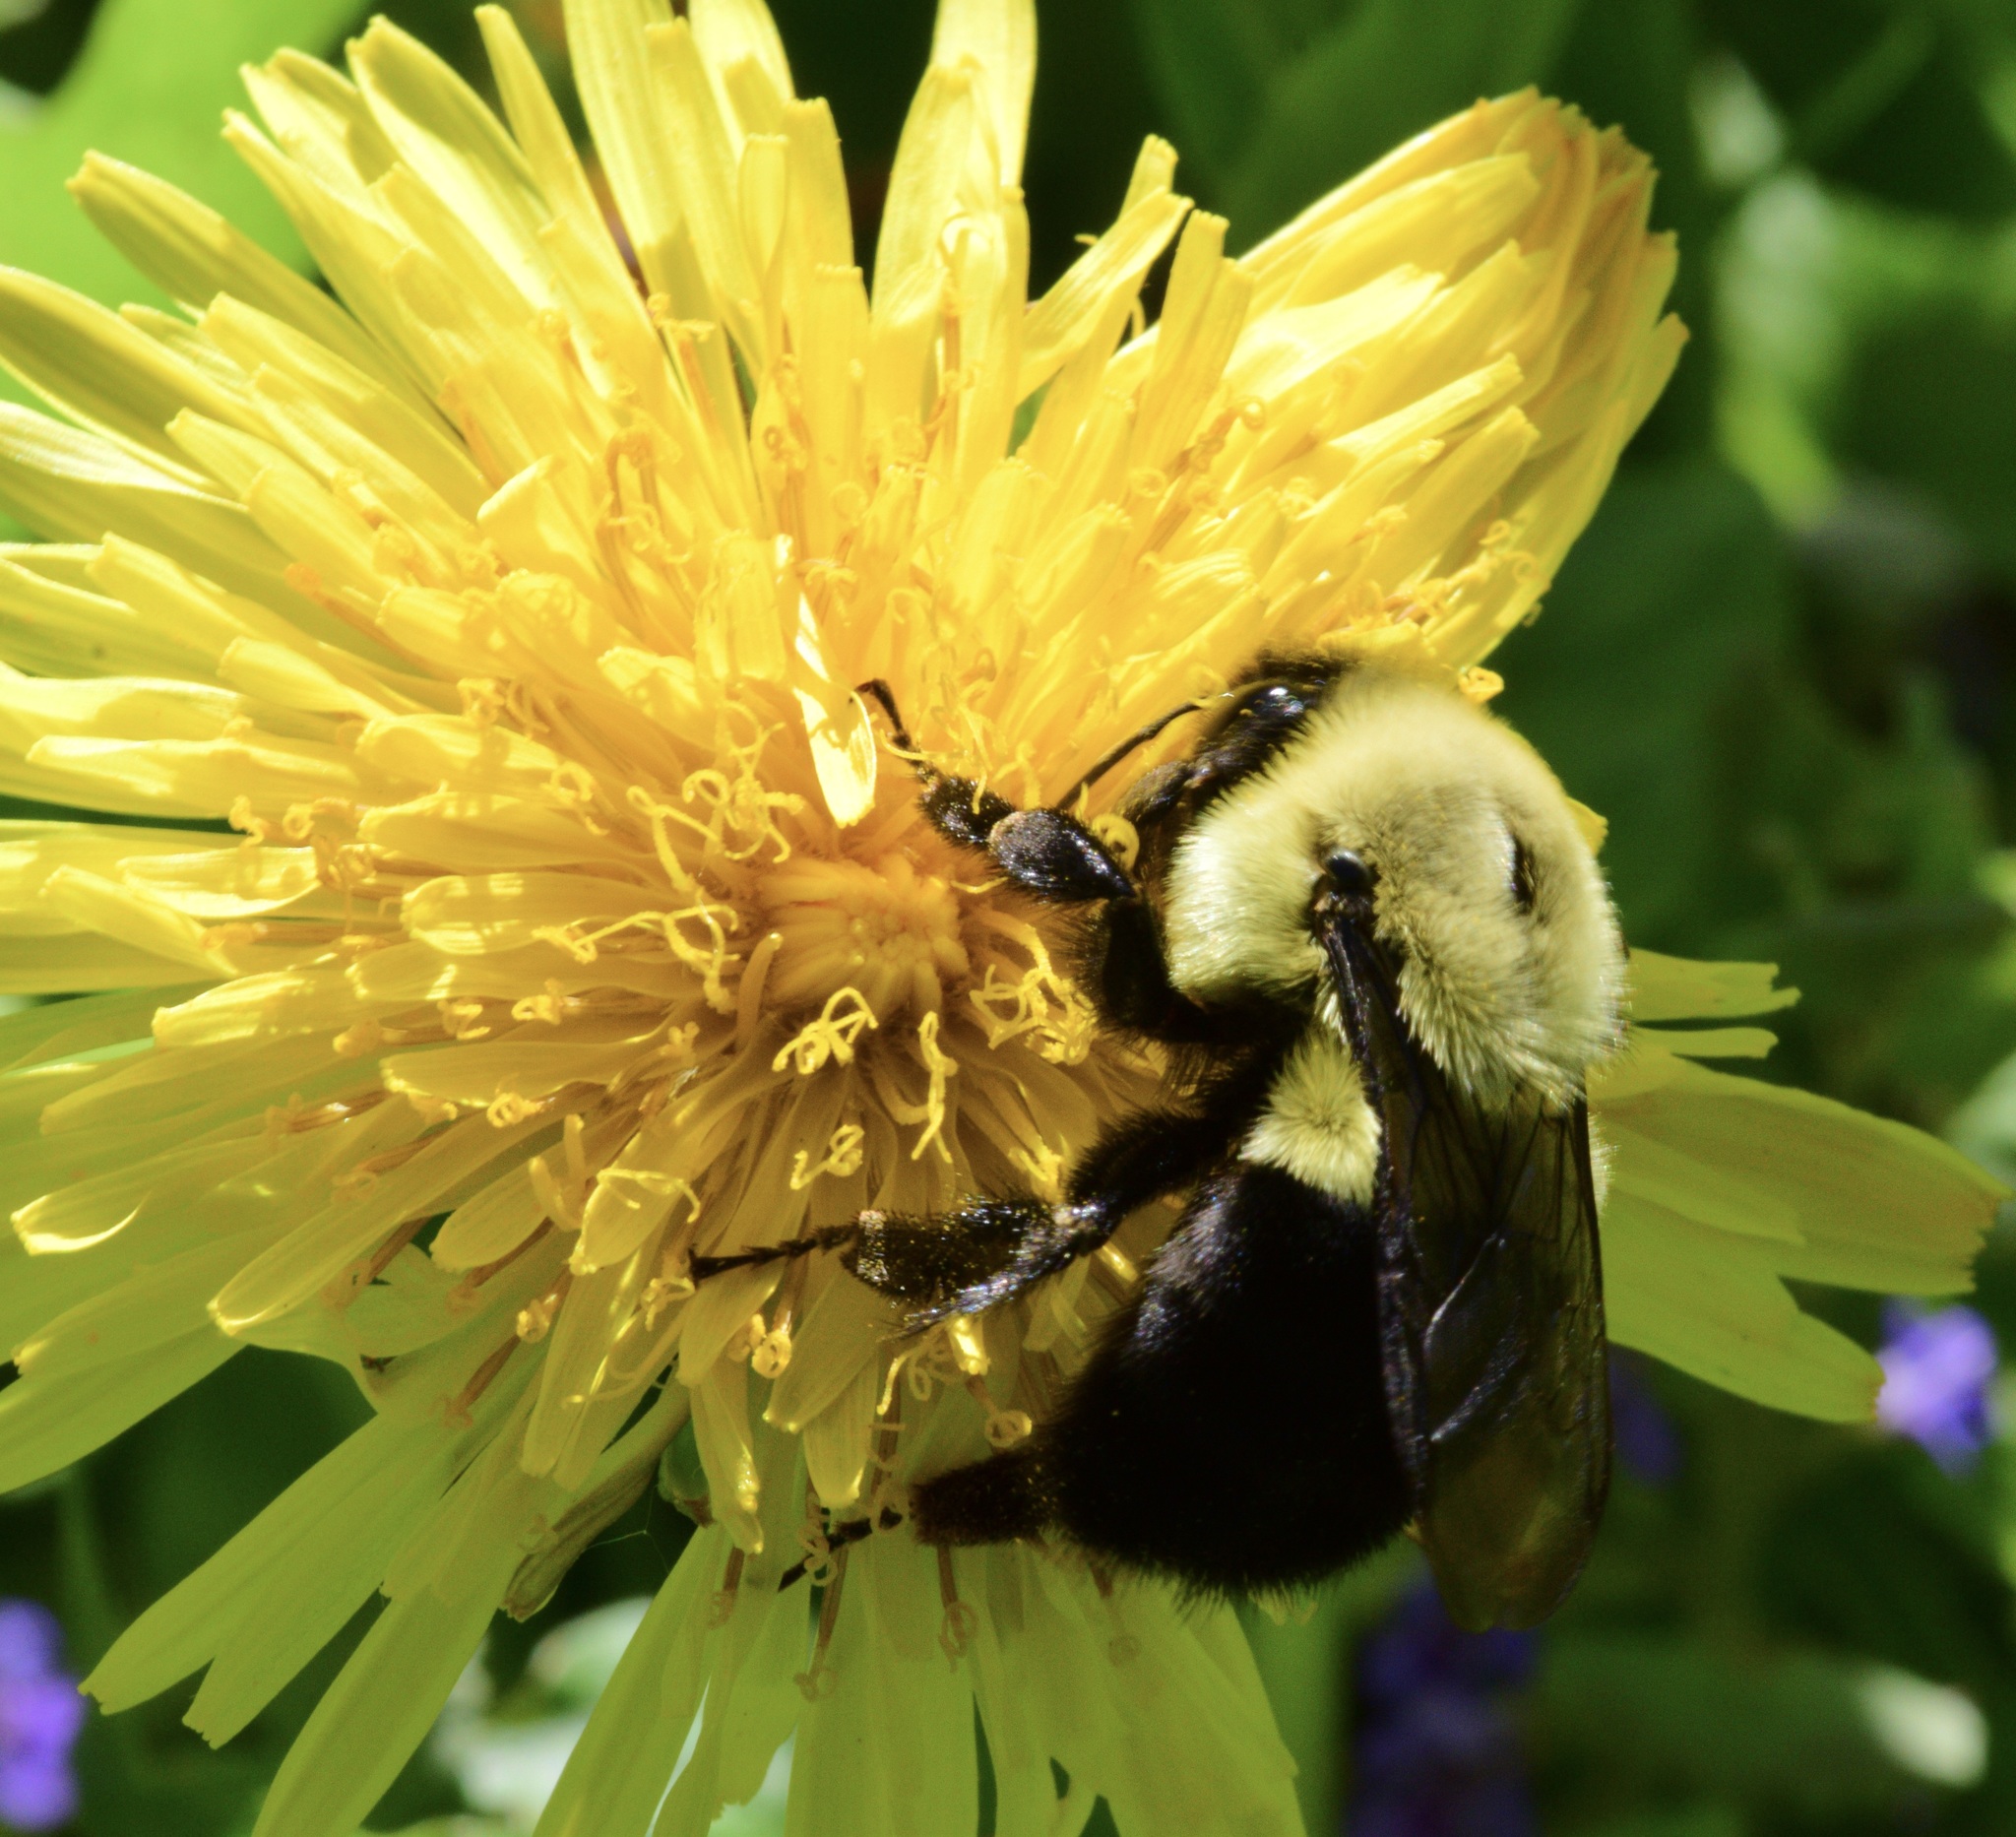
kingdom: Animalia
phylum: Arthropoda
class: Insecta
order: Hymenoptera
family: Apidae
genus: Bombus
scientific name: Bombus impatiens
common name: Common eastern bumble bee
